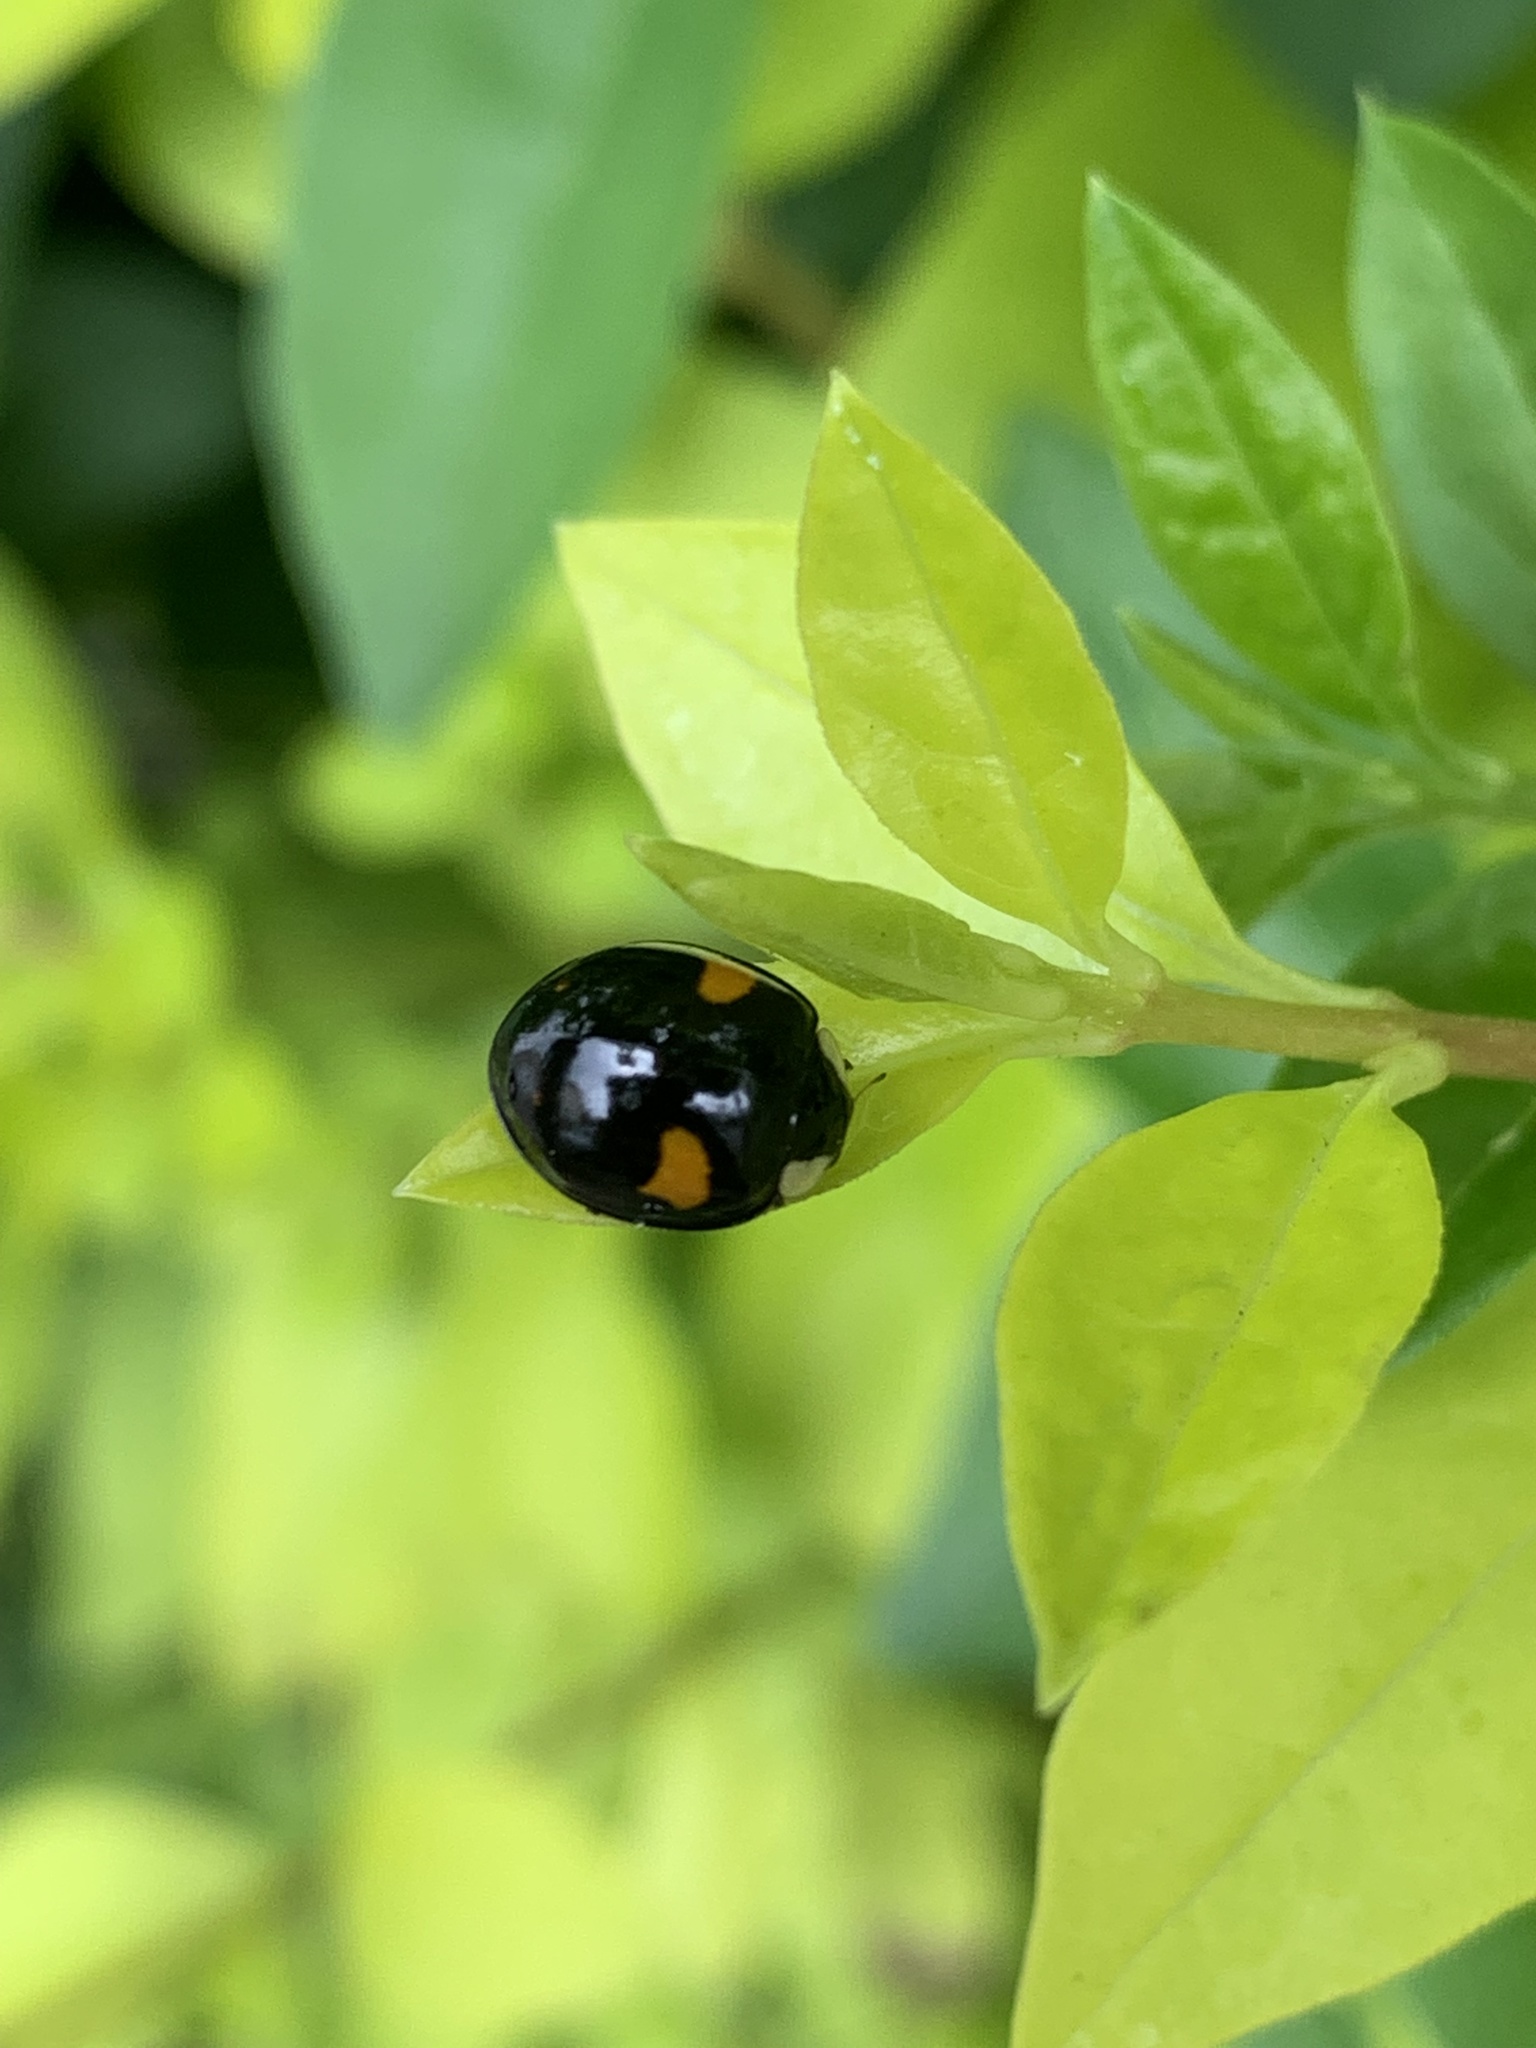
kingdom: Animalia
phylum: Arthropoda
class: Insecta
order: Coleoptera
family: Coccinellidae
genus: Harmonia
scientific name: Harmonia axyridis
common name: Harlequin ladybird
